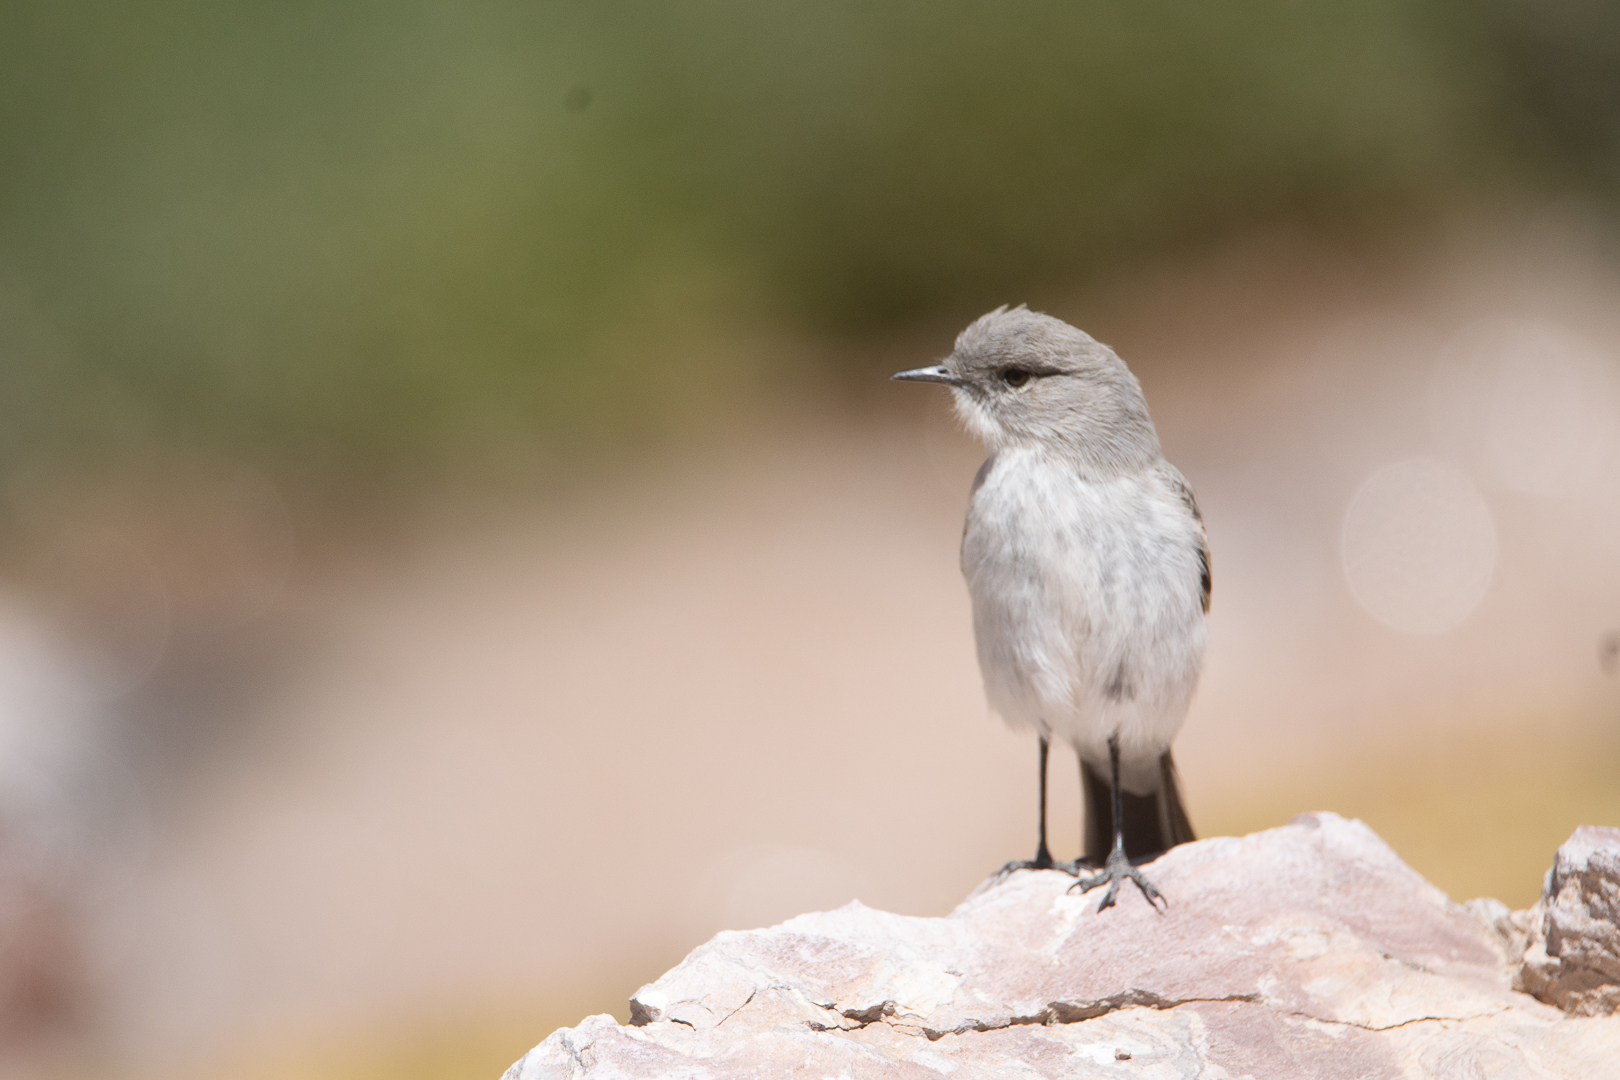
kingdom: Animalia
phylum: Chordata
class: Aves
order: Passeriformes
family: Tyrannidae
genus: Muscisaxicola
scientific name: Muscisaxicola cinereus
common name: Cinereous ground tyrant
